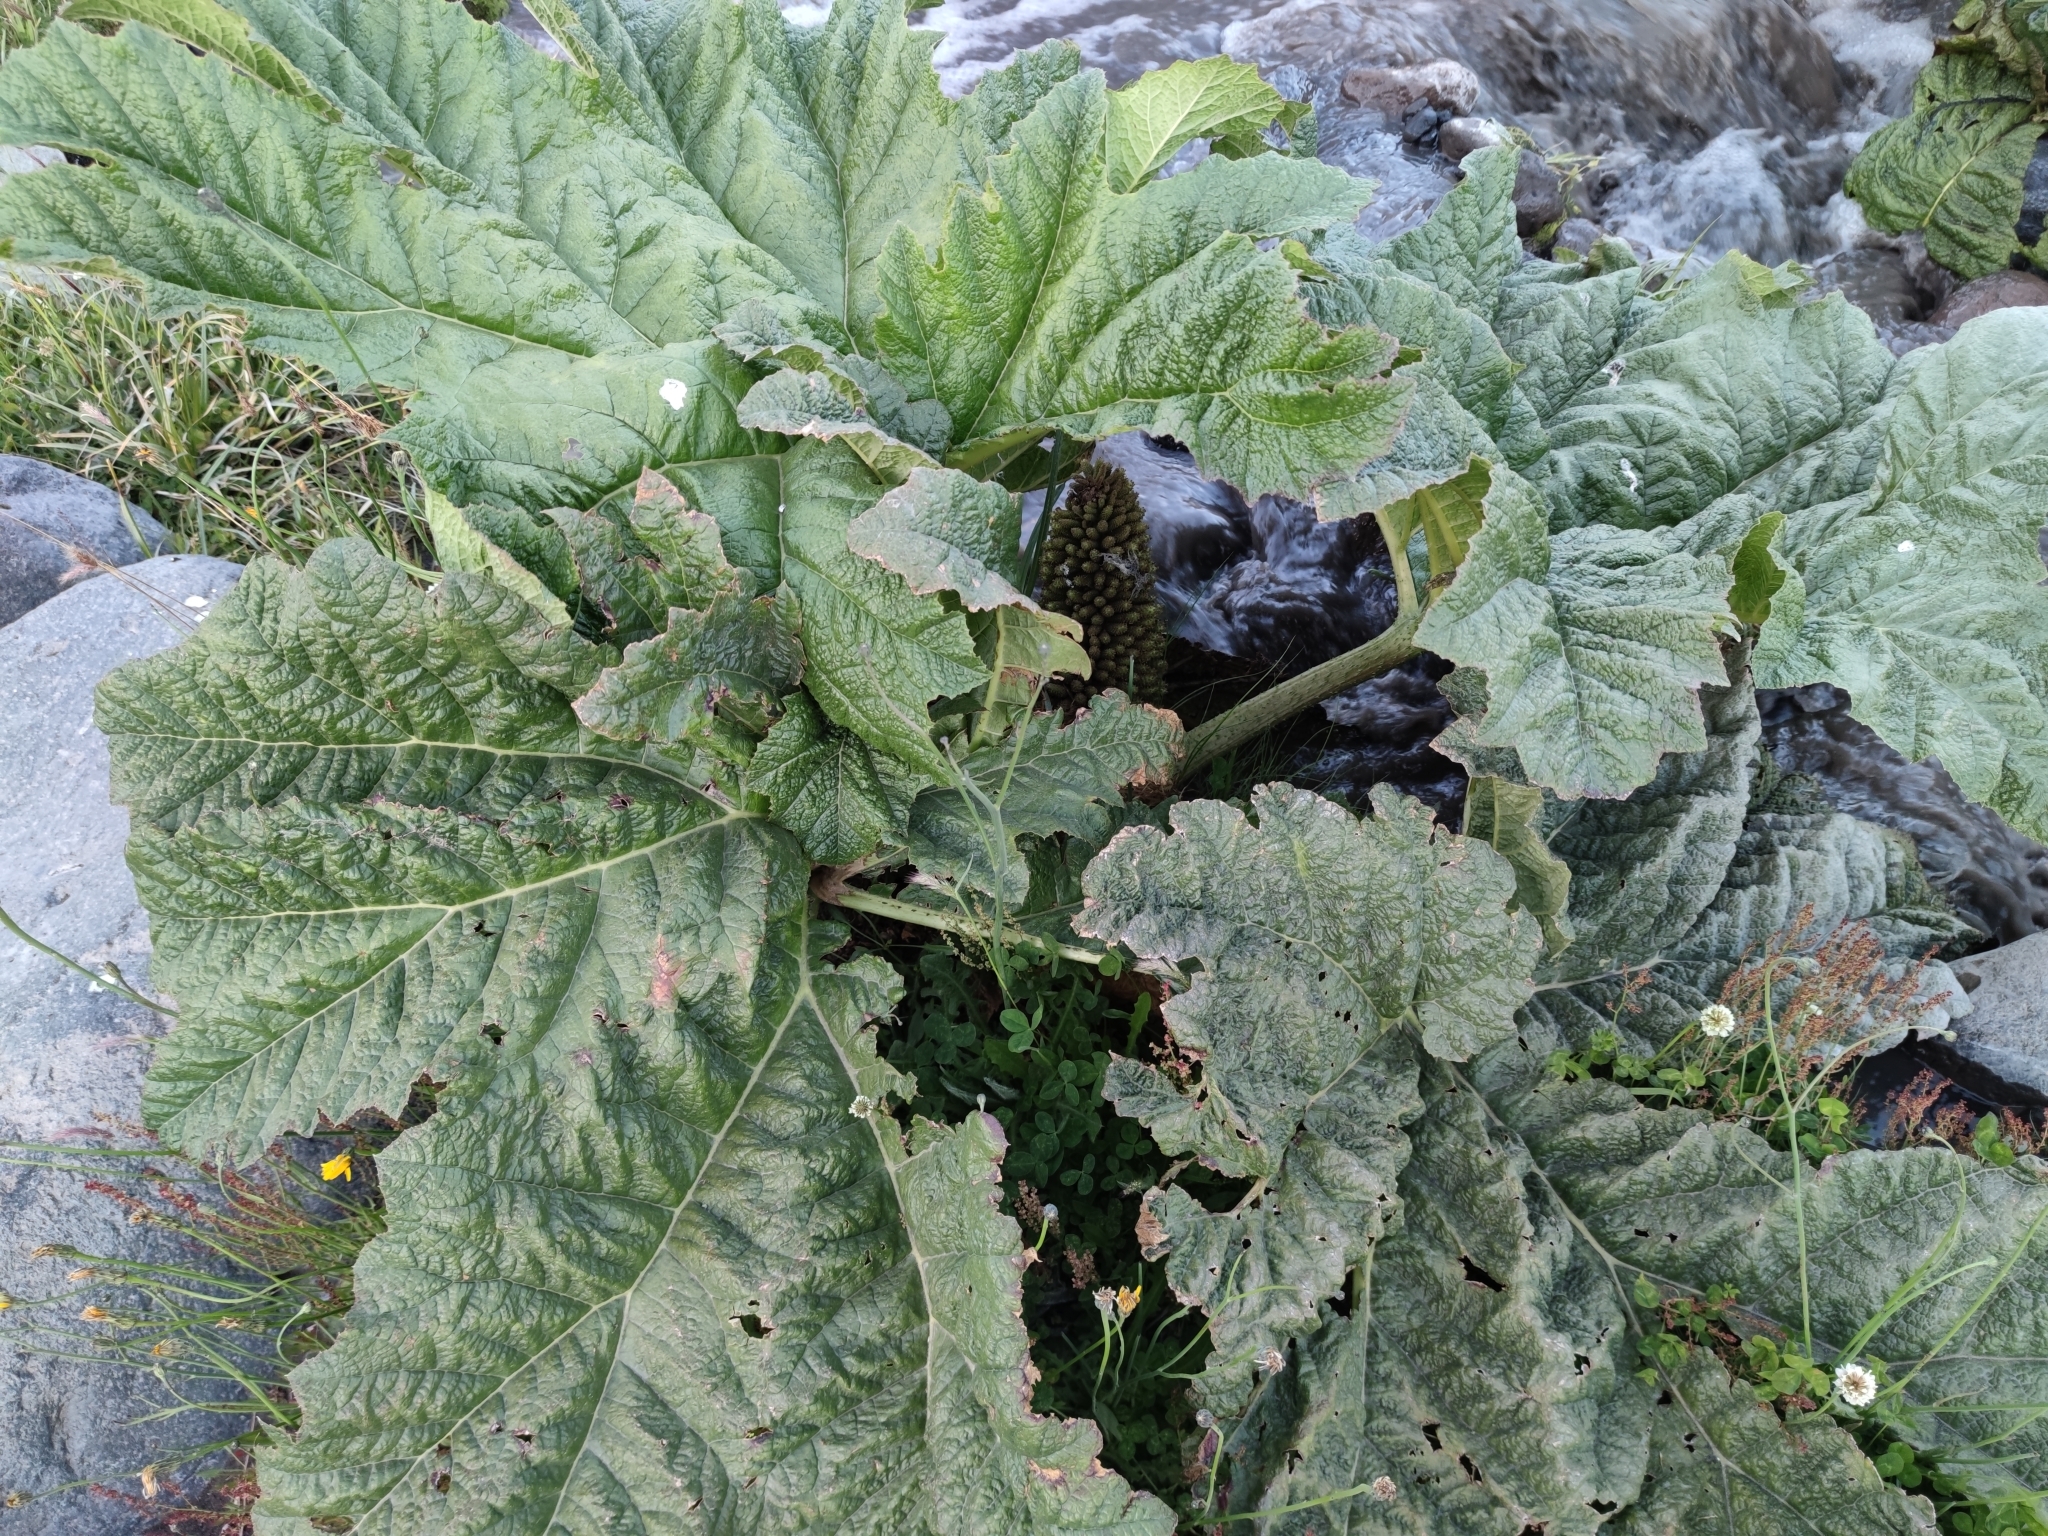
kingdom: Plantae
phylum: Tracheophyta
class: Magnoliopsida
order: Gunnerales
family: Gunneraceae
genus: Gunnera
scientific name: Gunnera tinctoria
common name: Giant-rhubarb
